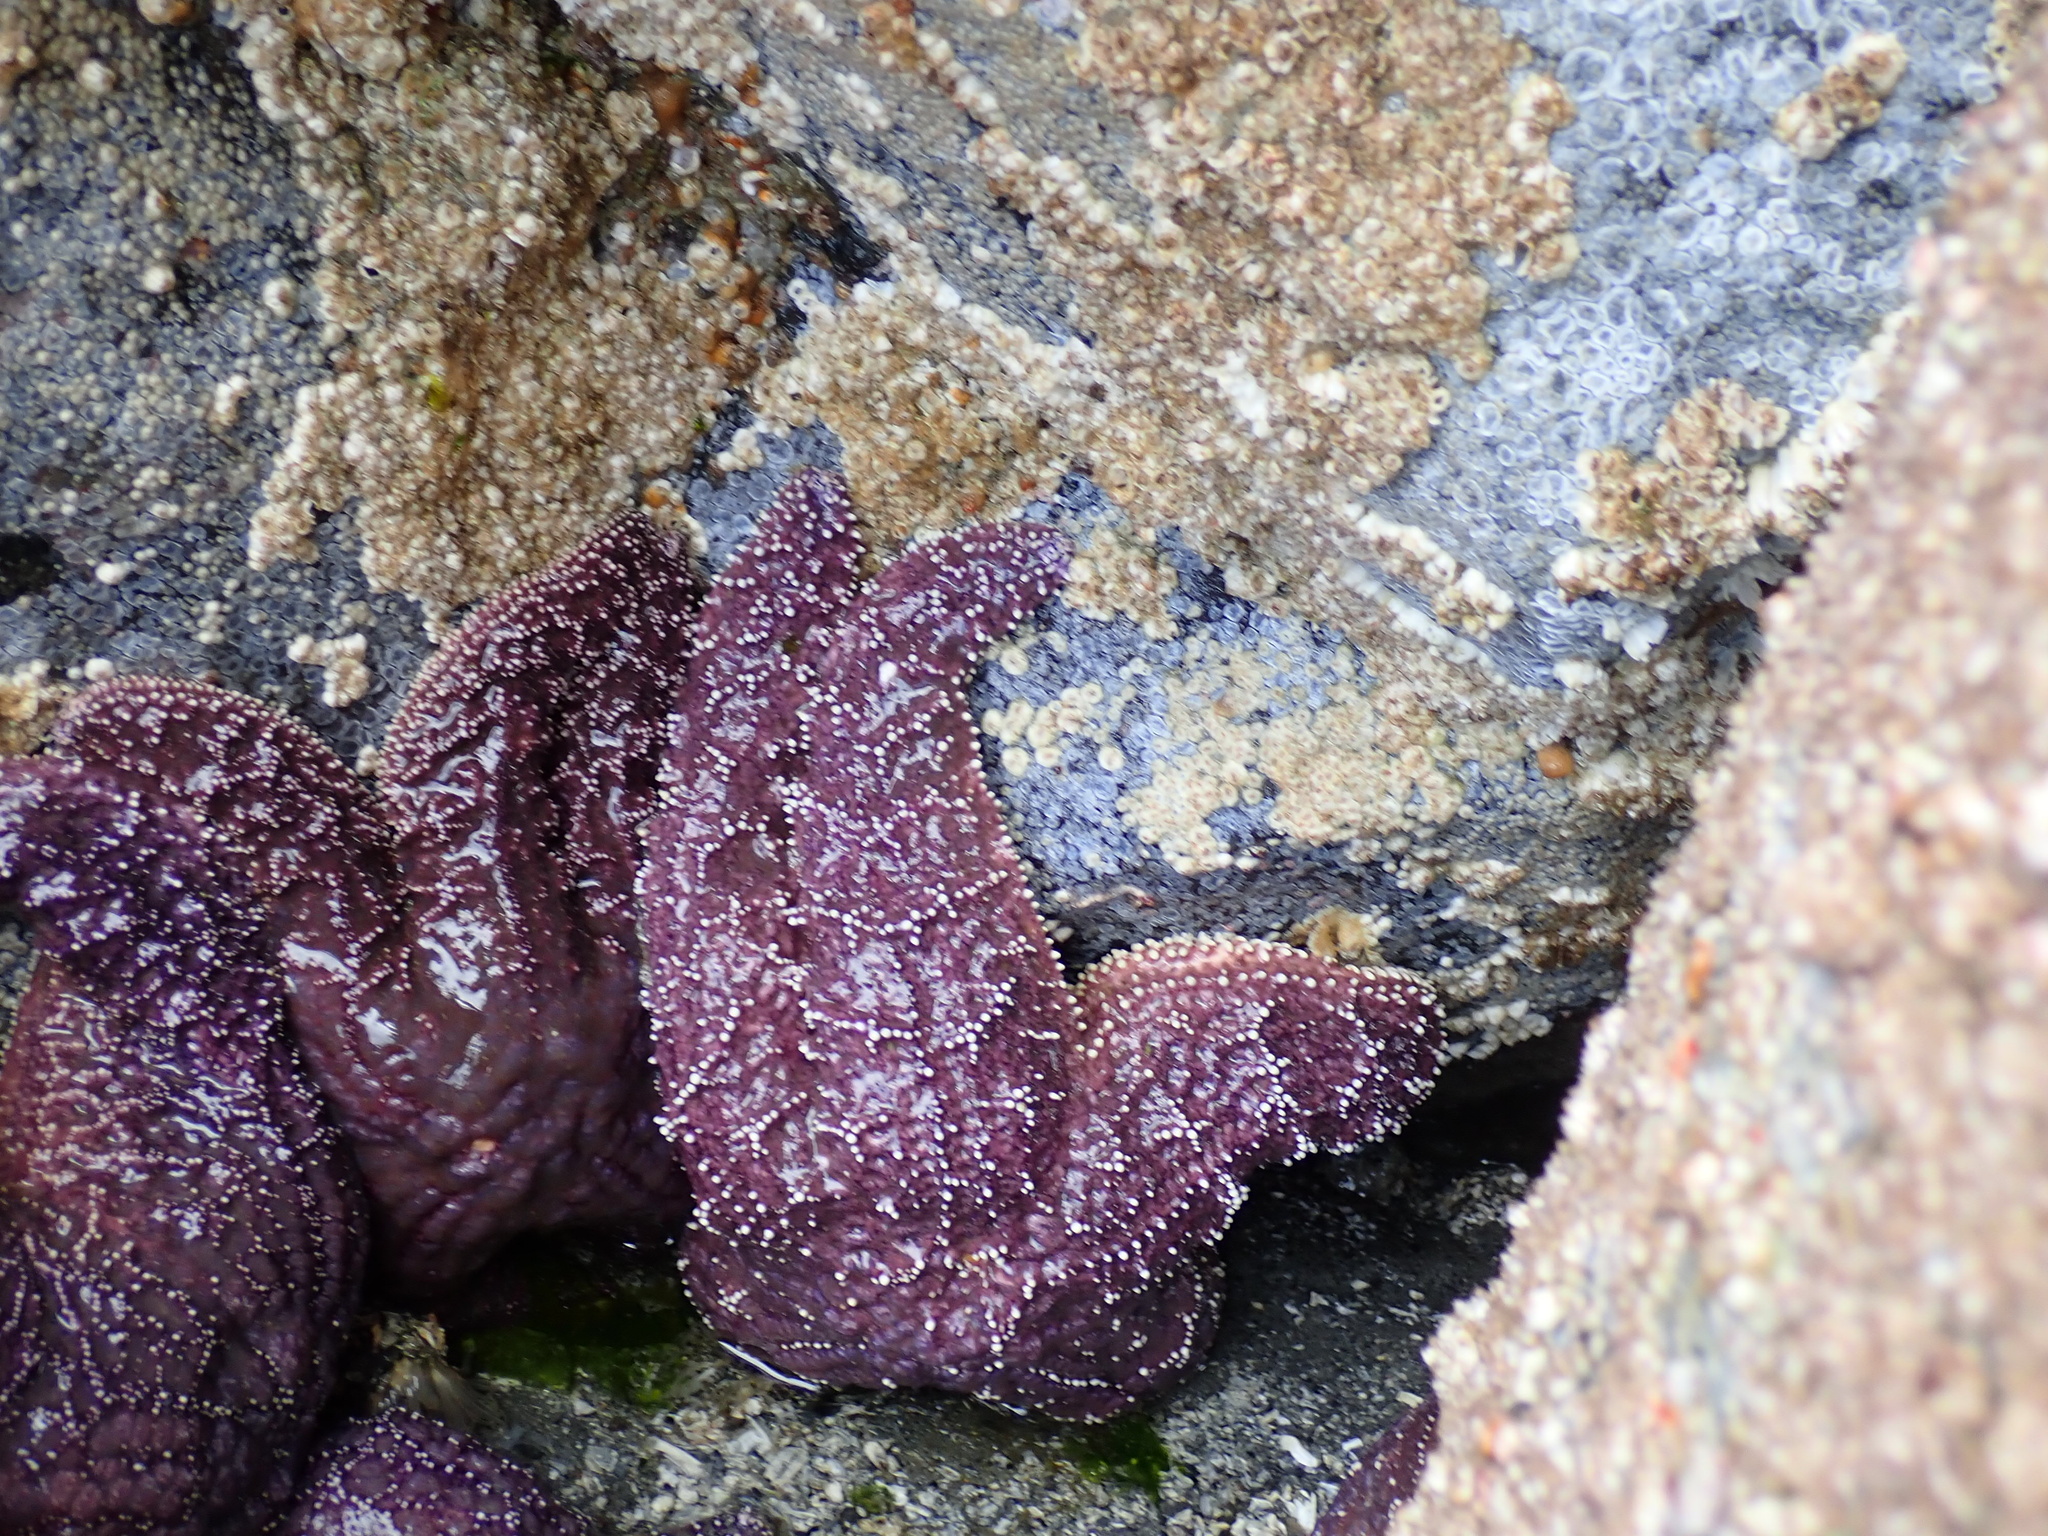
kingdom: Animalia
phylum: Echinodermata
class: Asteroidea
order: Forcipulatida
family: Asteriidae
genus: Pisaster
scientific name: Pisaster ochraceus
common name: Ochre stars
